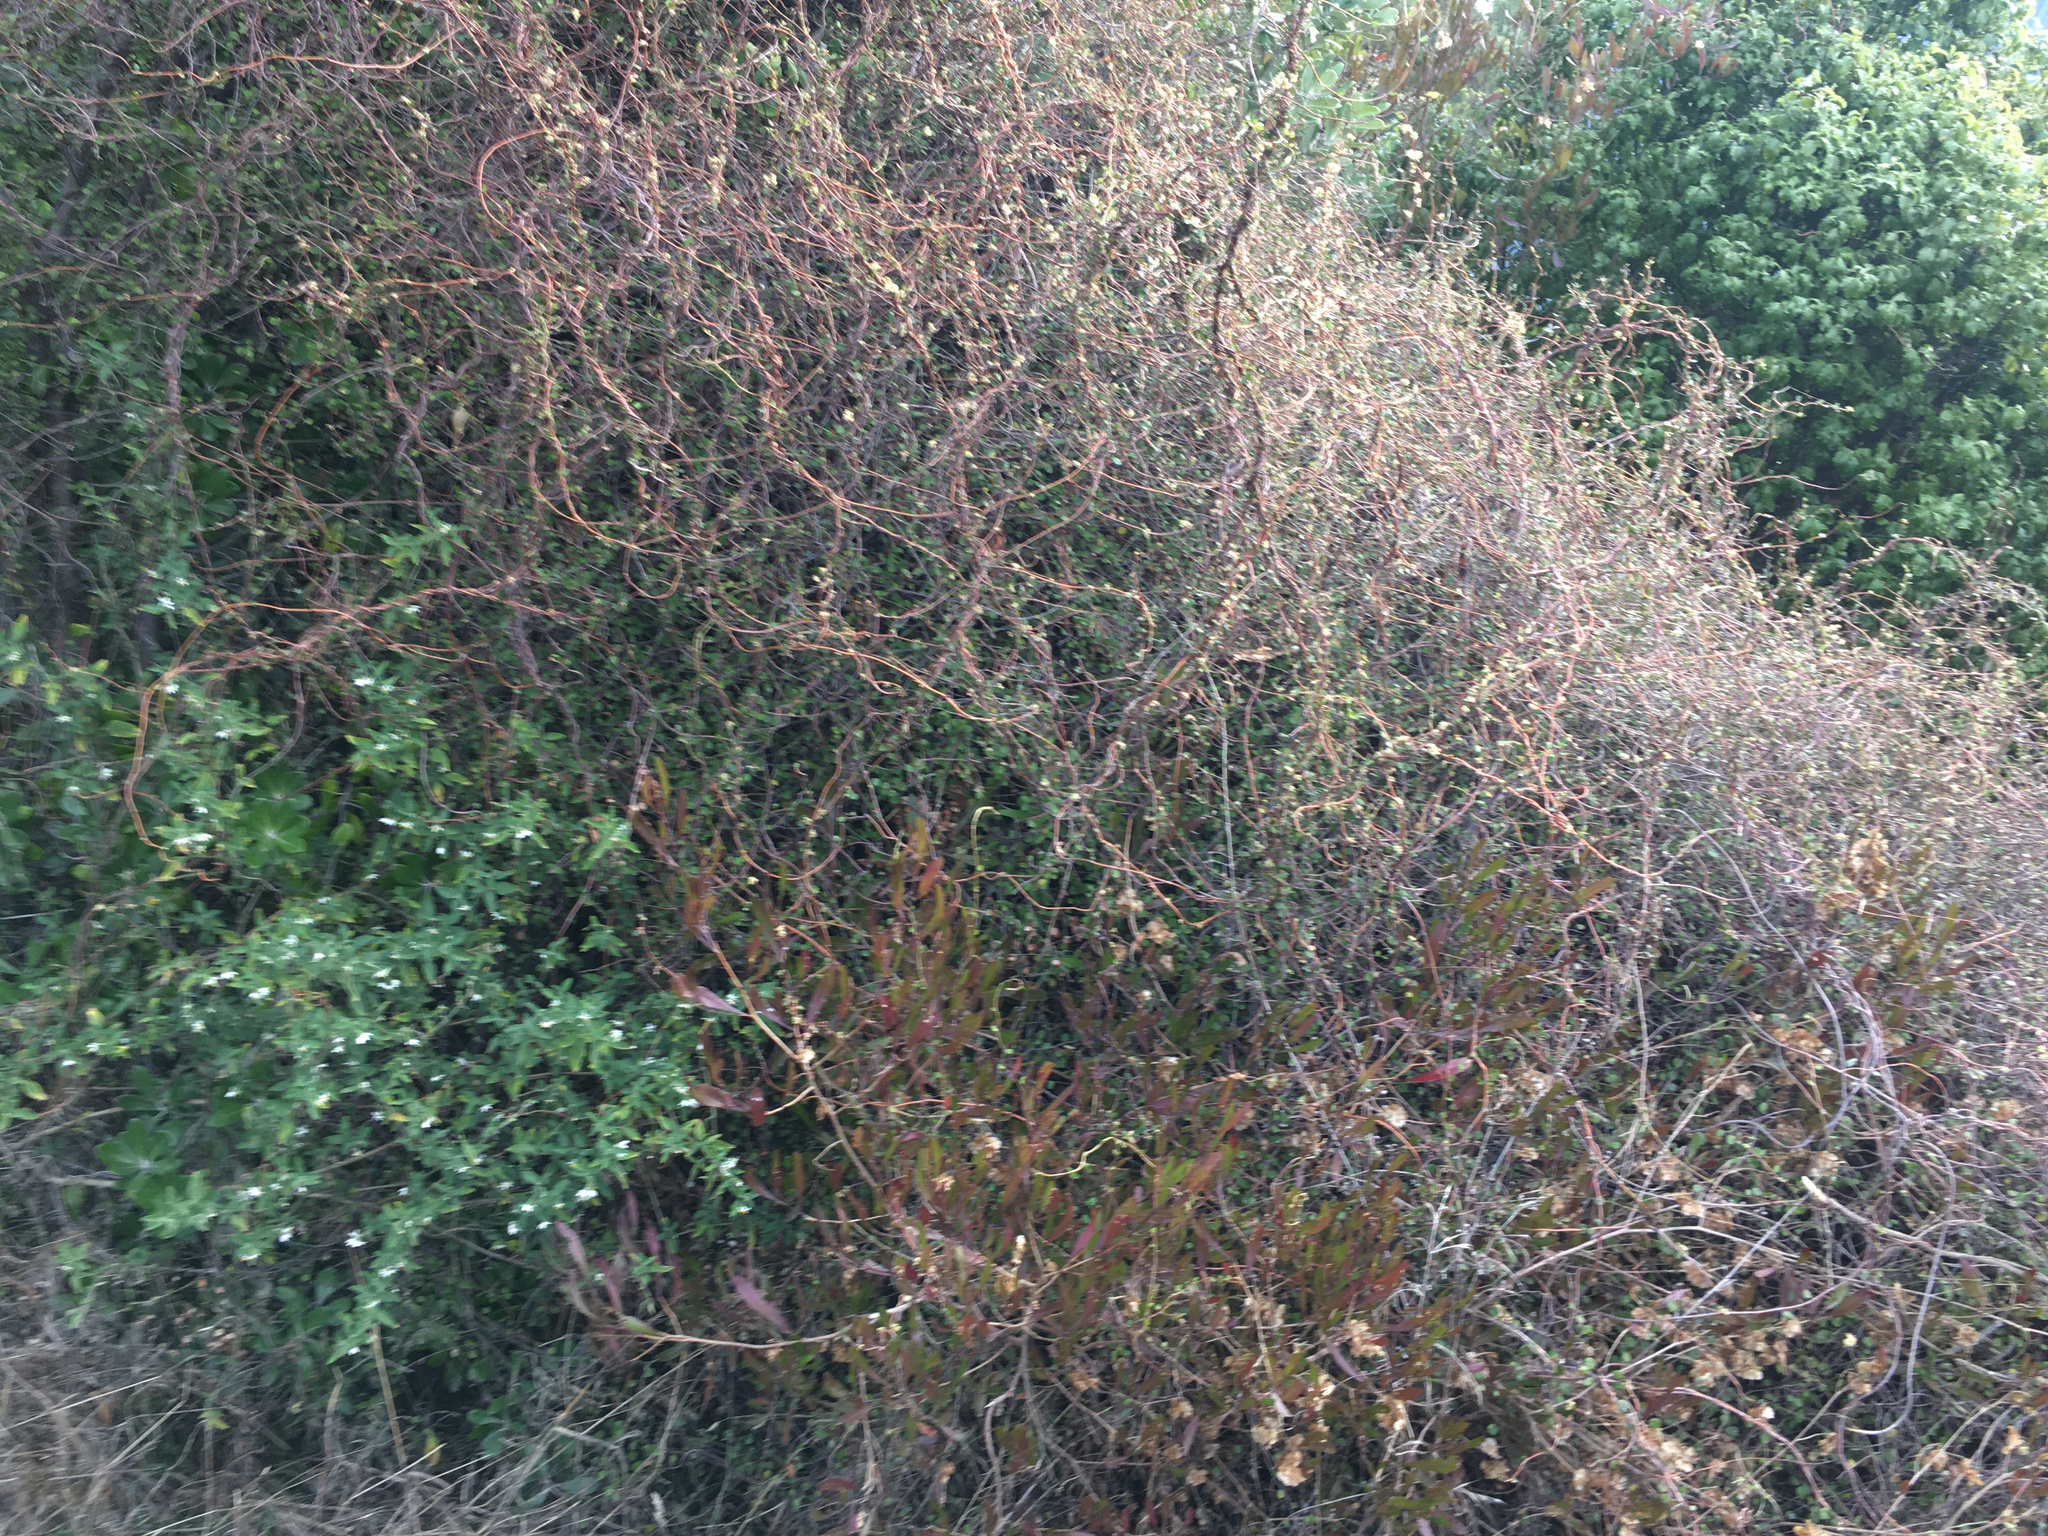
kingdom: Plantae
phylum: Tracheophyta
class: Magnoliopsida
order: Caryophyllales
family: Polygonaceae
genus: Muehlenbeckia
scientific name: Muehlenbeckia complexa
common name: Wireplant
